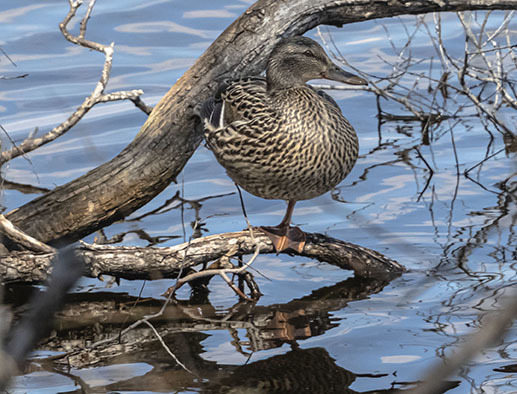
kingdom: Animalia
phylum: Chordata
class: Aves
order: Anseriformes
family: Anatidae
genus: Anas
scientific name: Anas platyrhynchos
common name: Mallard
